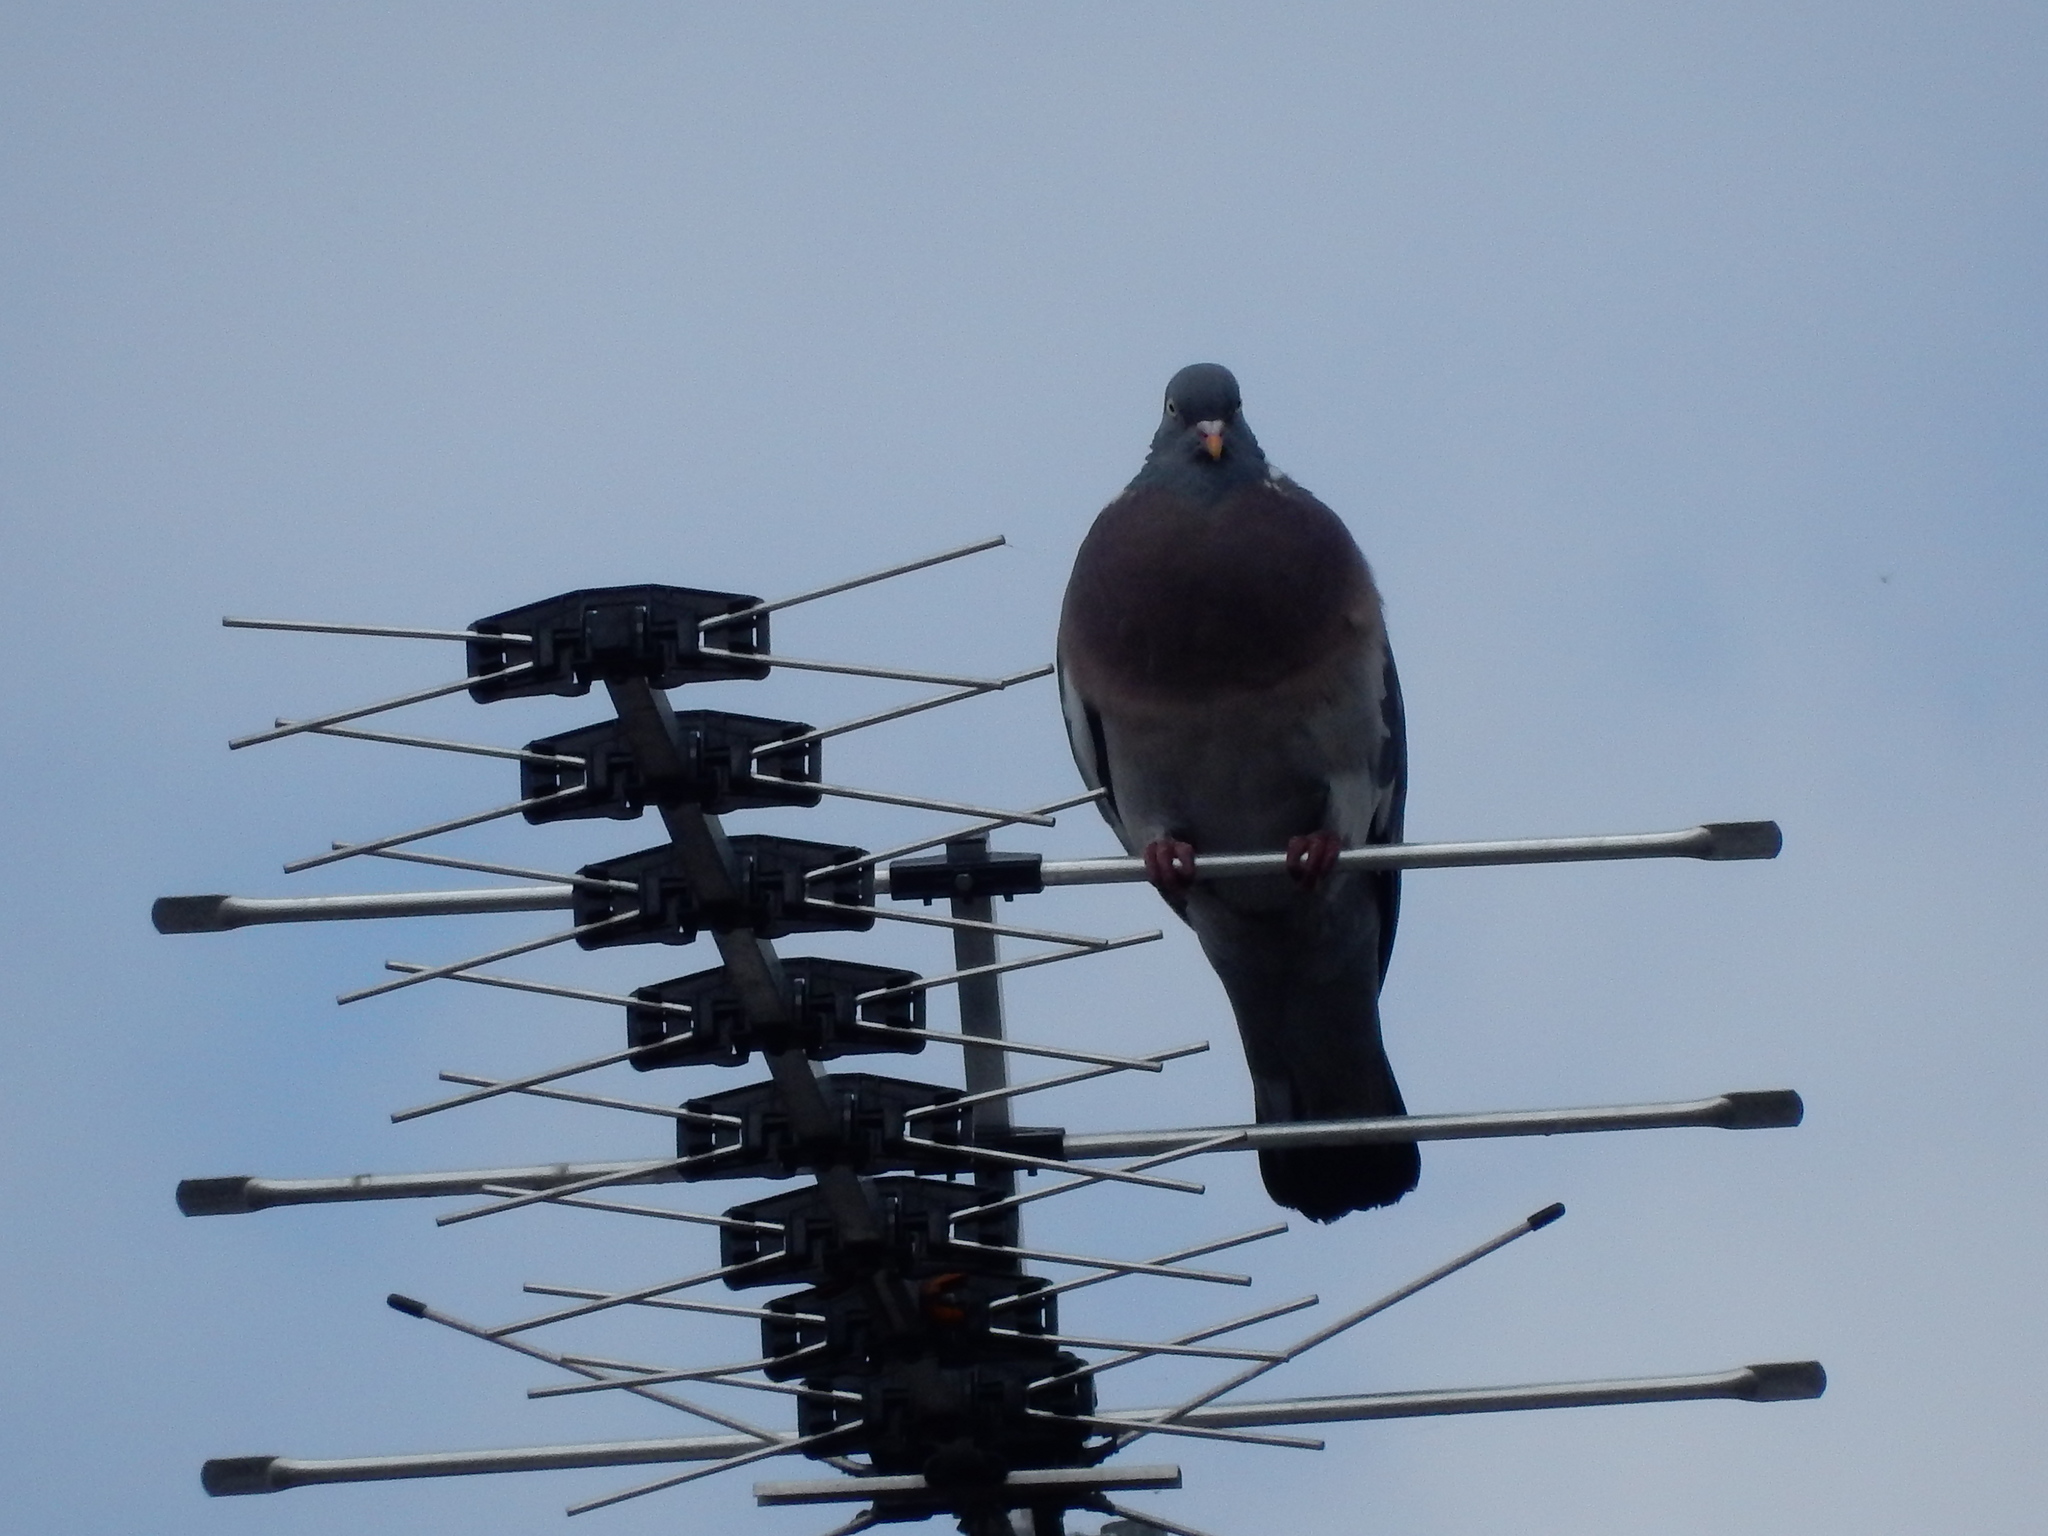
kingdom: Animalia
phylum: Chordata
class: Aves
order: Columbiformes
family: Columbidae
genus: Columba
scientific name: Columba palumbus
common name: Common wood pigeon
